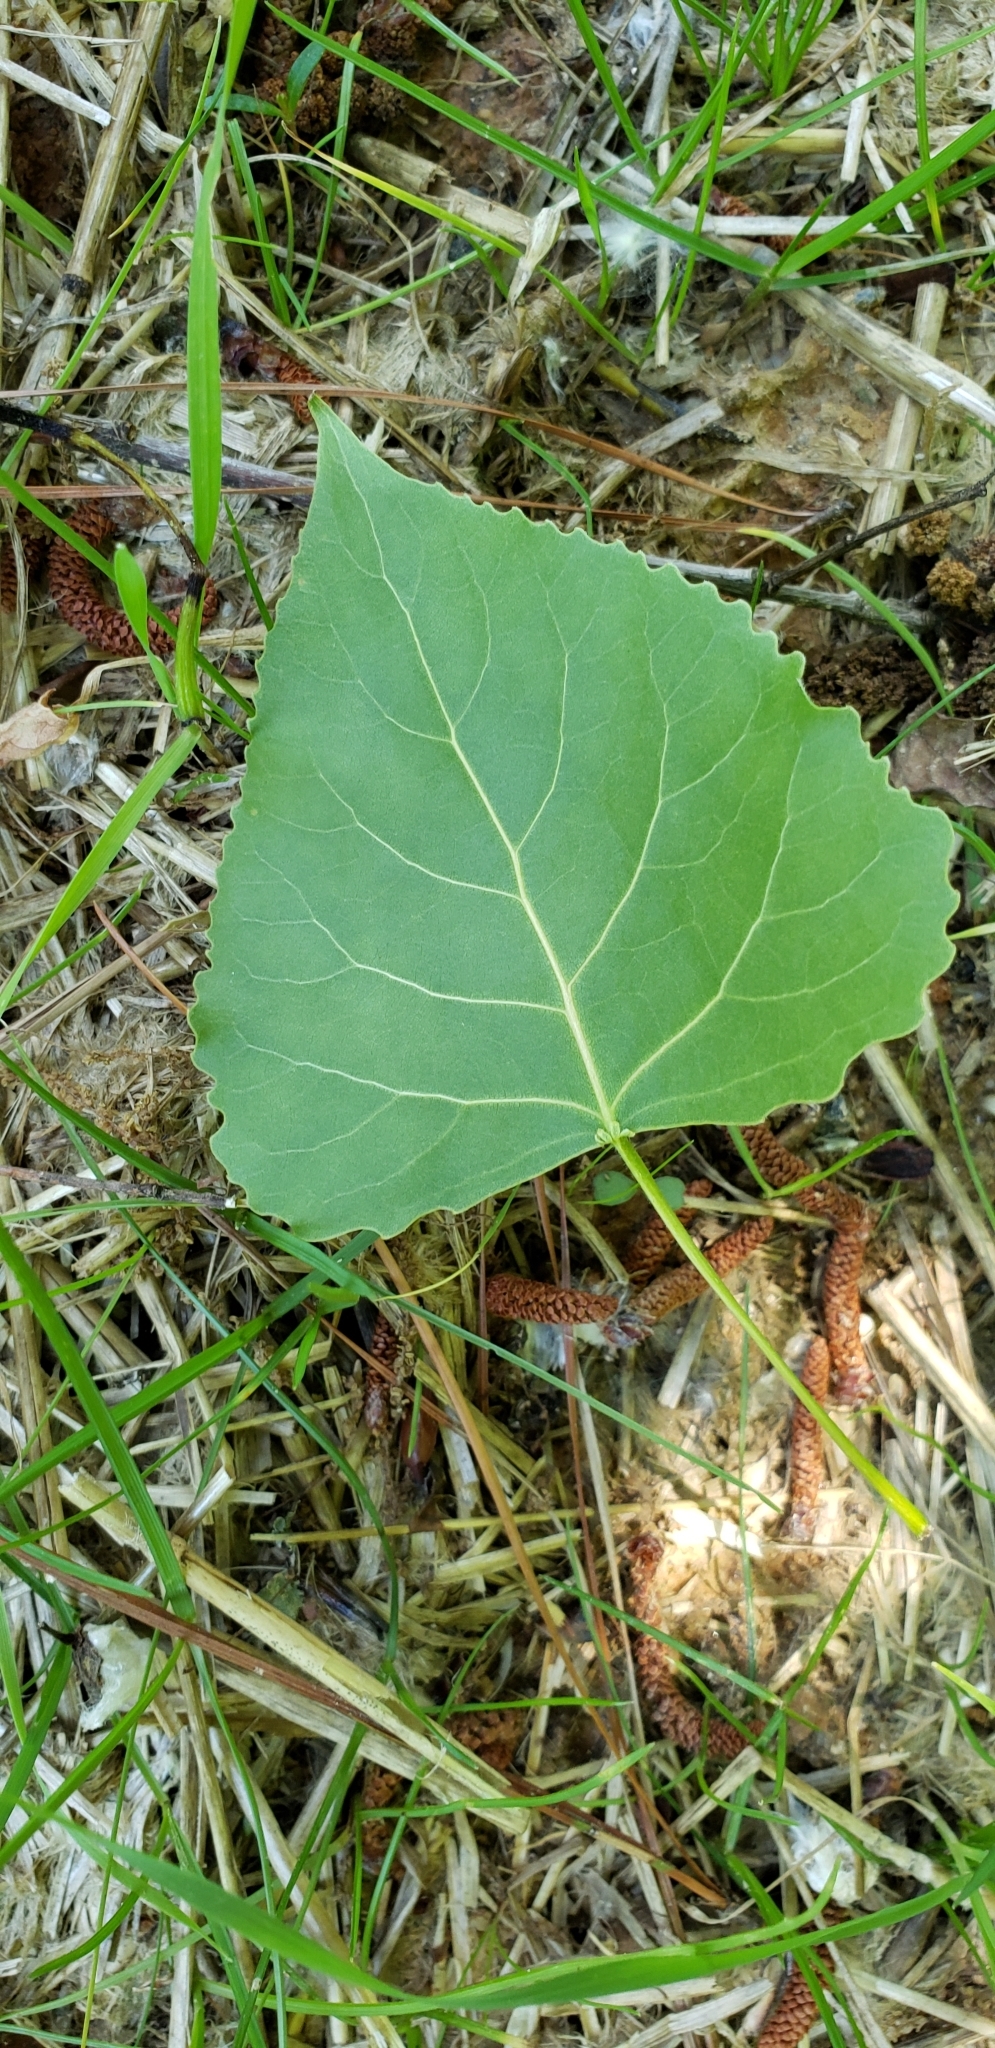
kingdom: Plantae
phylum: Tracheophyta
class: Magnoliopsida
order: Malpighiales
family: Salicaceae
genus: Populus
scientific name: Populus deltoides
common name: Eastern cottonwood
